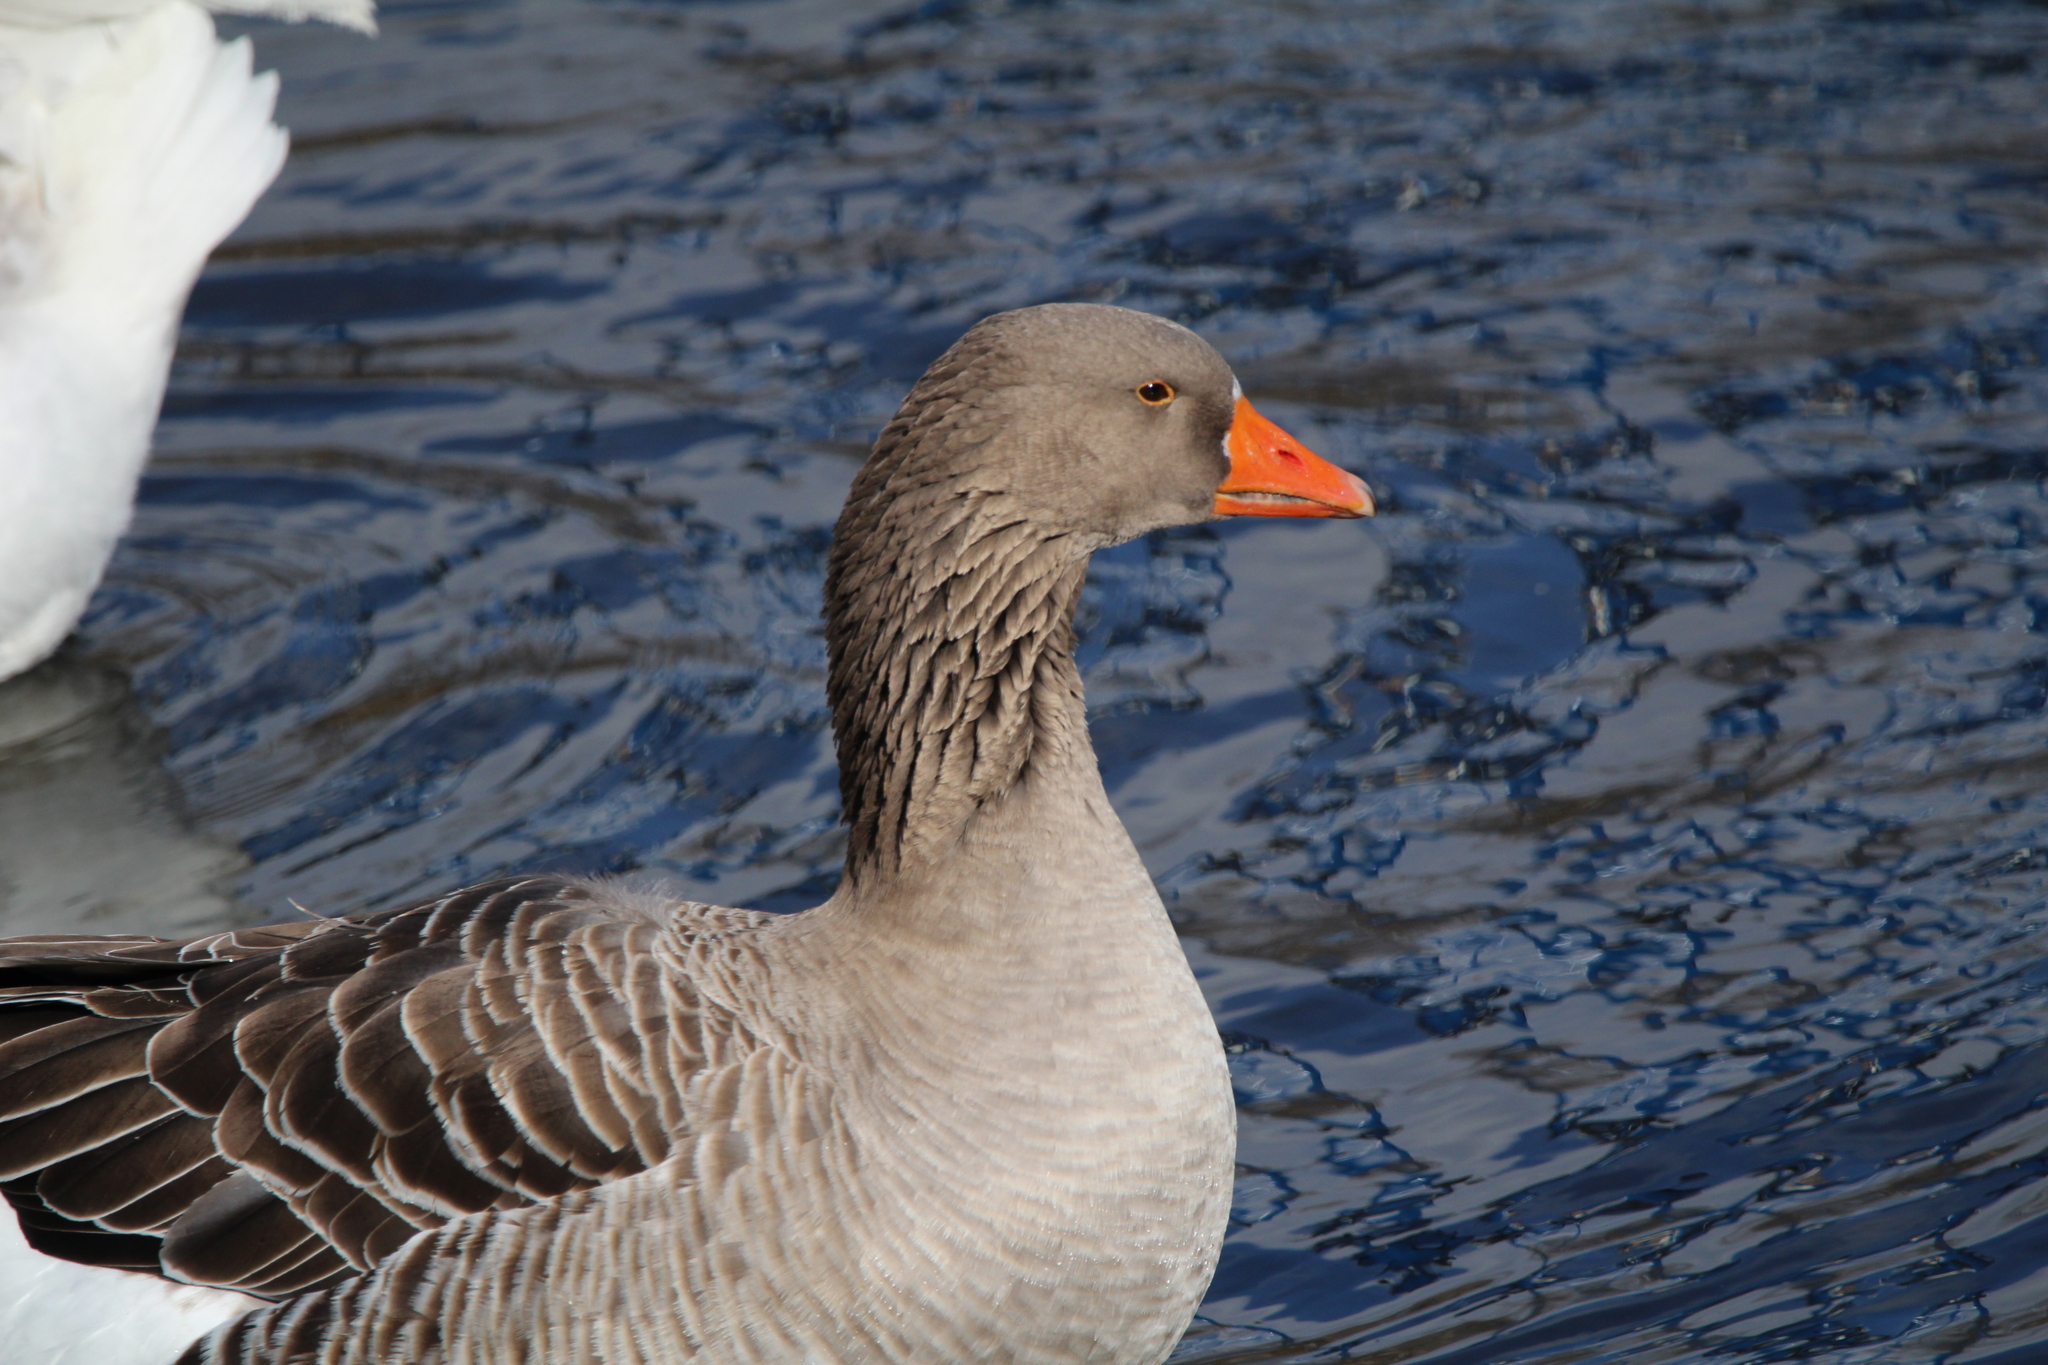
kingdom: Animalia
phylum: Chordata
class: Aves
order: Anseriformes
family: Anatidae
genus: Anser
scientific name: Anser anser
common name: Greylag goose
